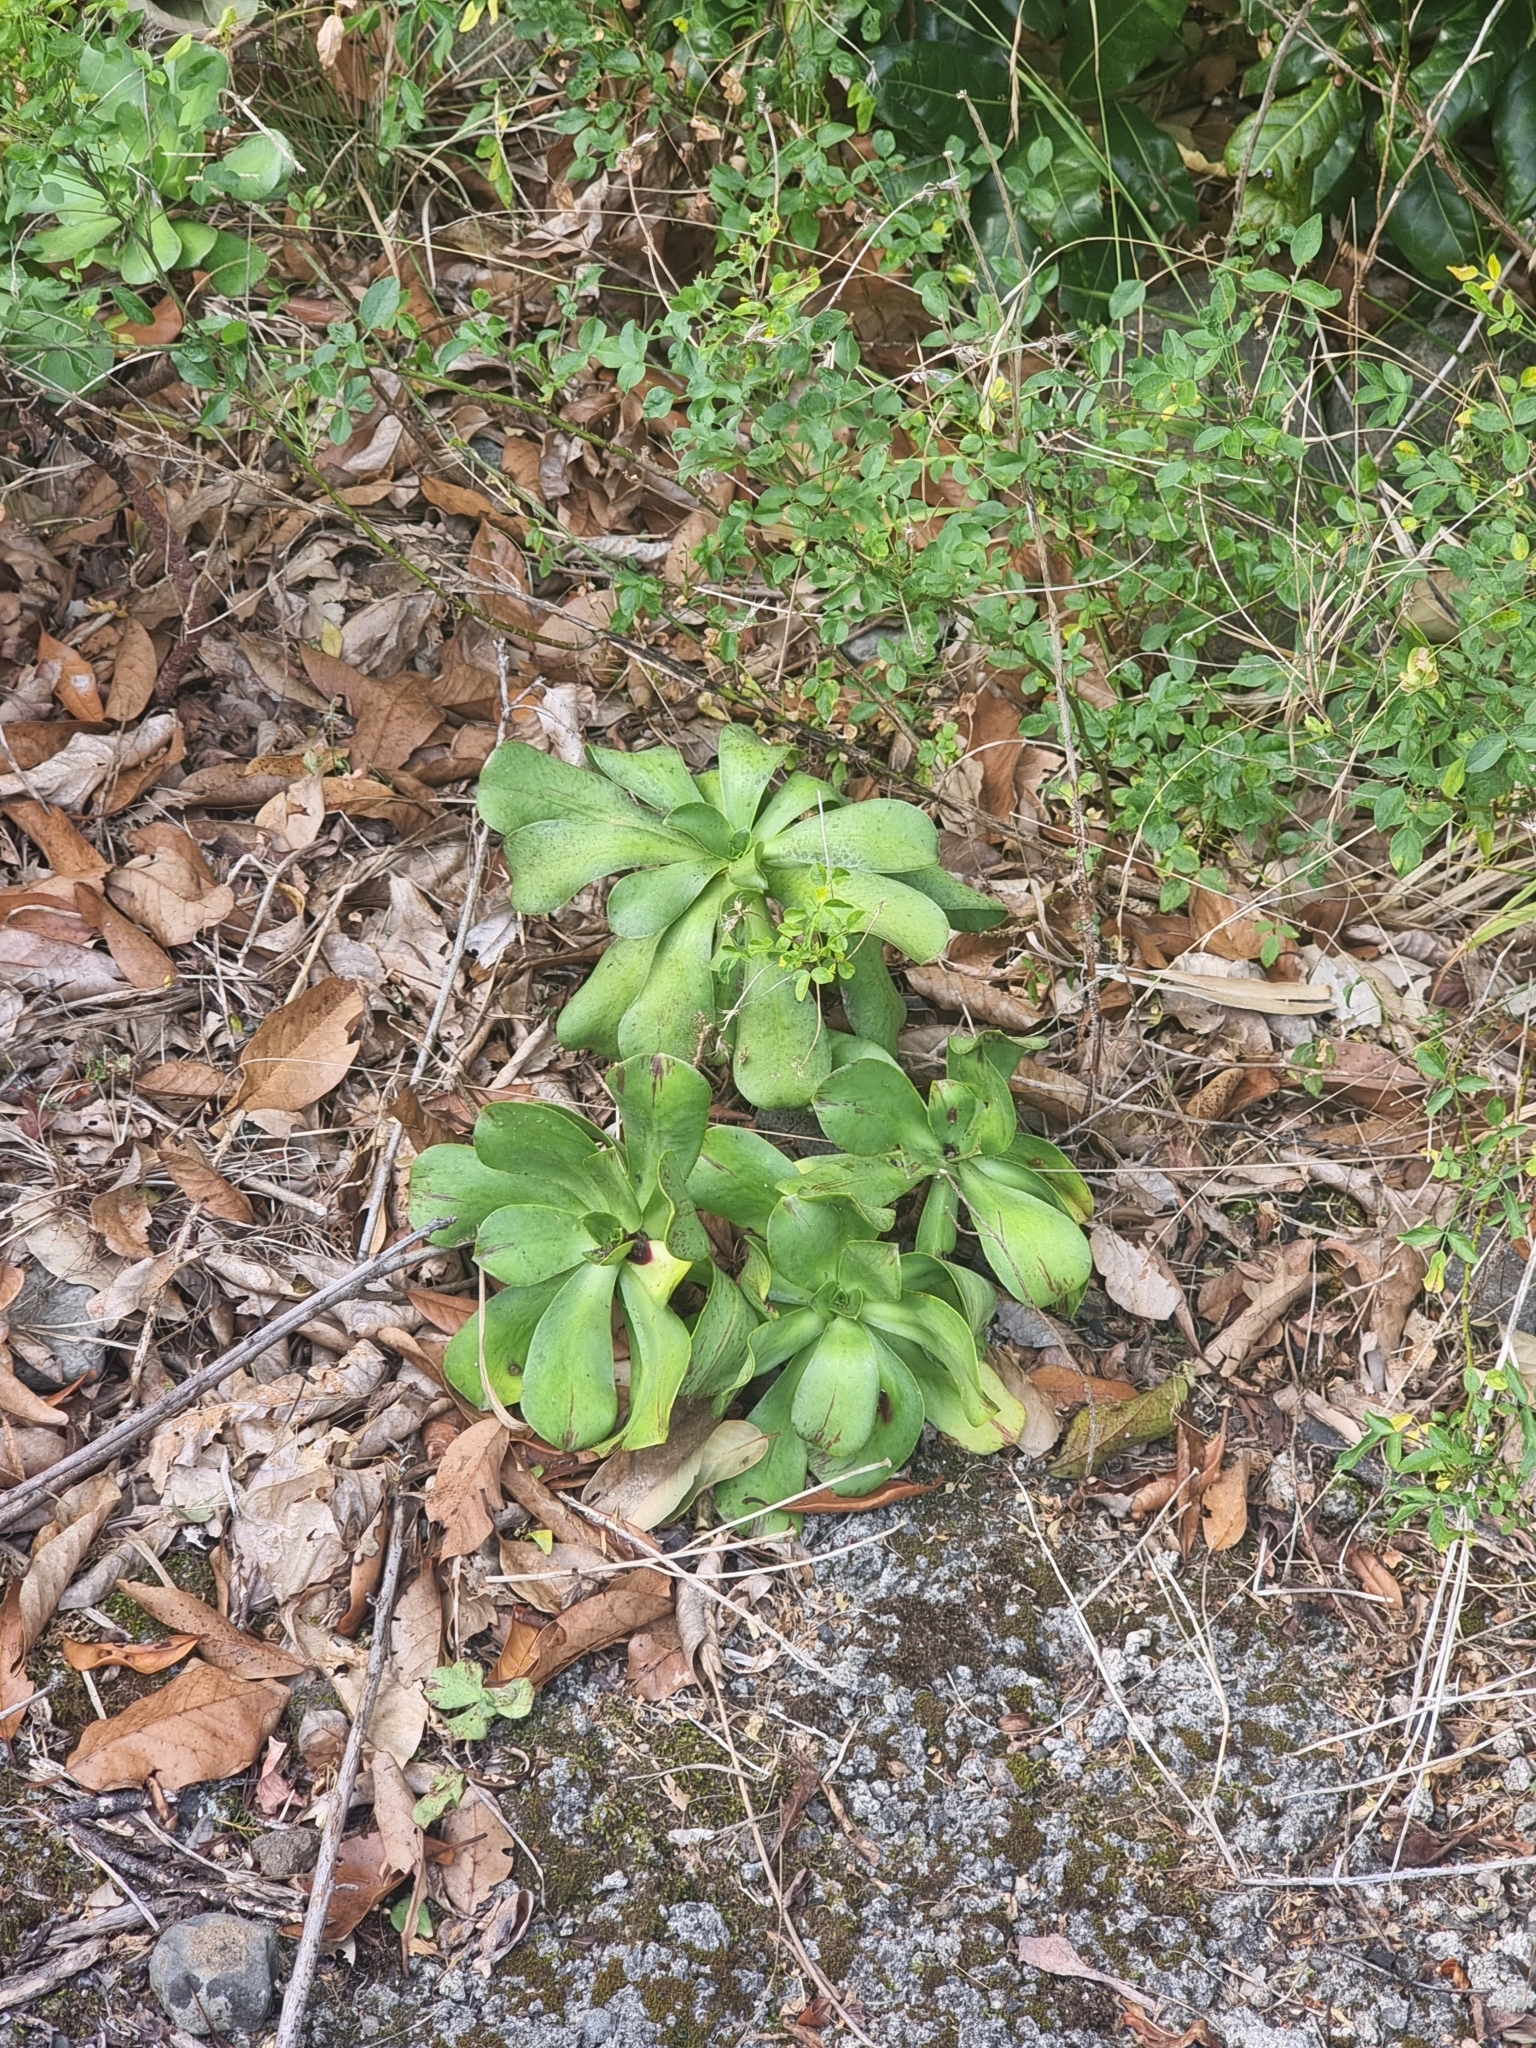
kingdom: Plantae
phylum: Tracheophyta
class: Magnoliopsida
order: Saxifragales
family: Crassulaceae
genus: Aeonium
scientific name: Aeonium glutinosum
